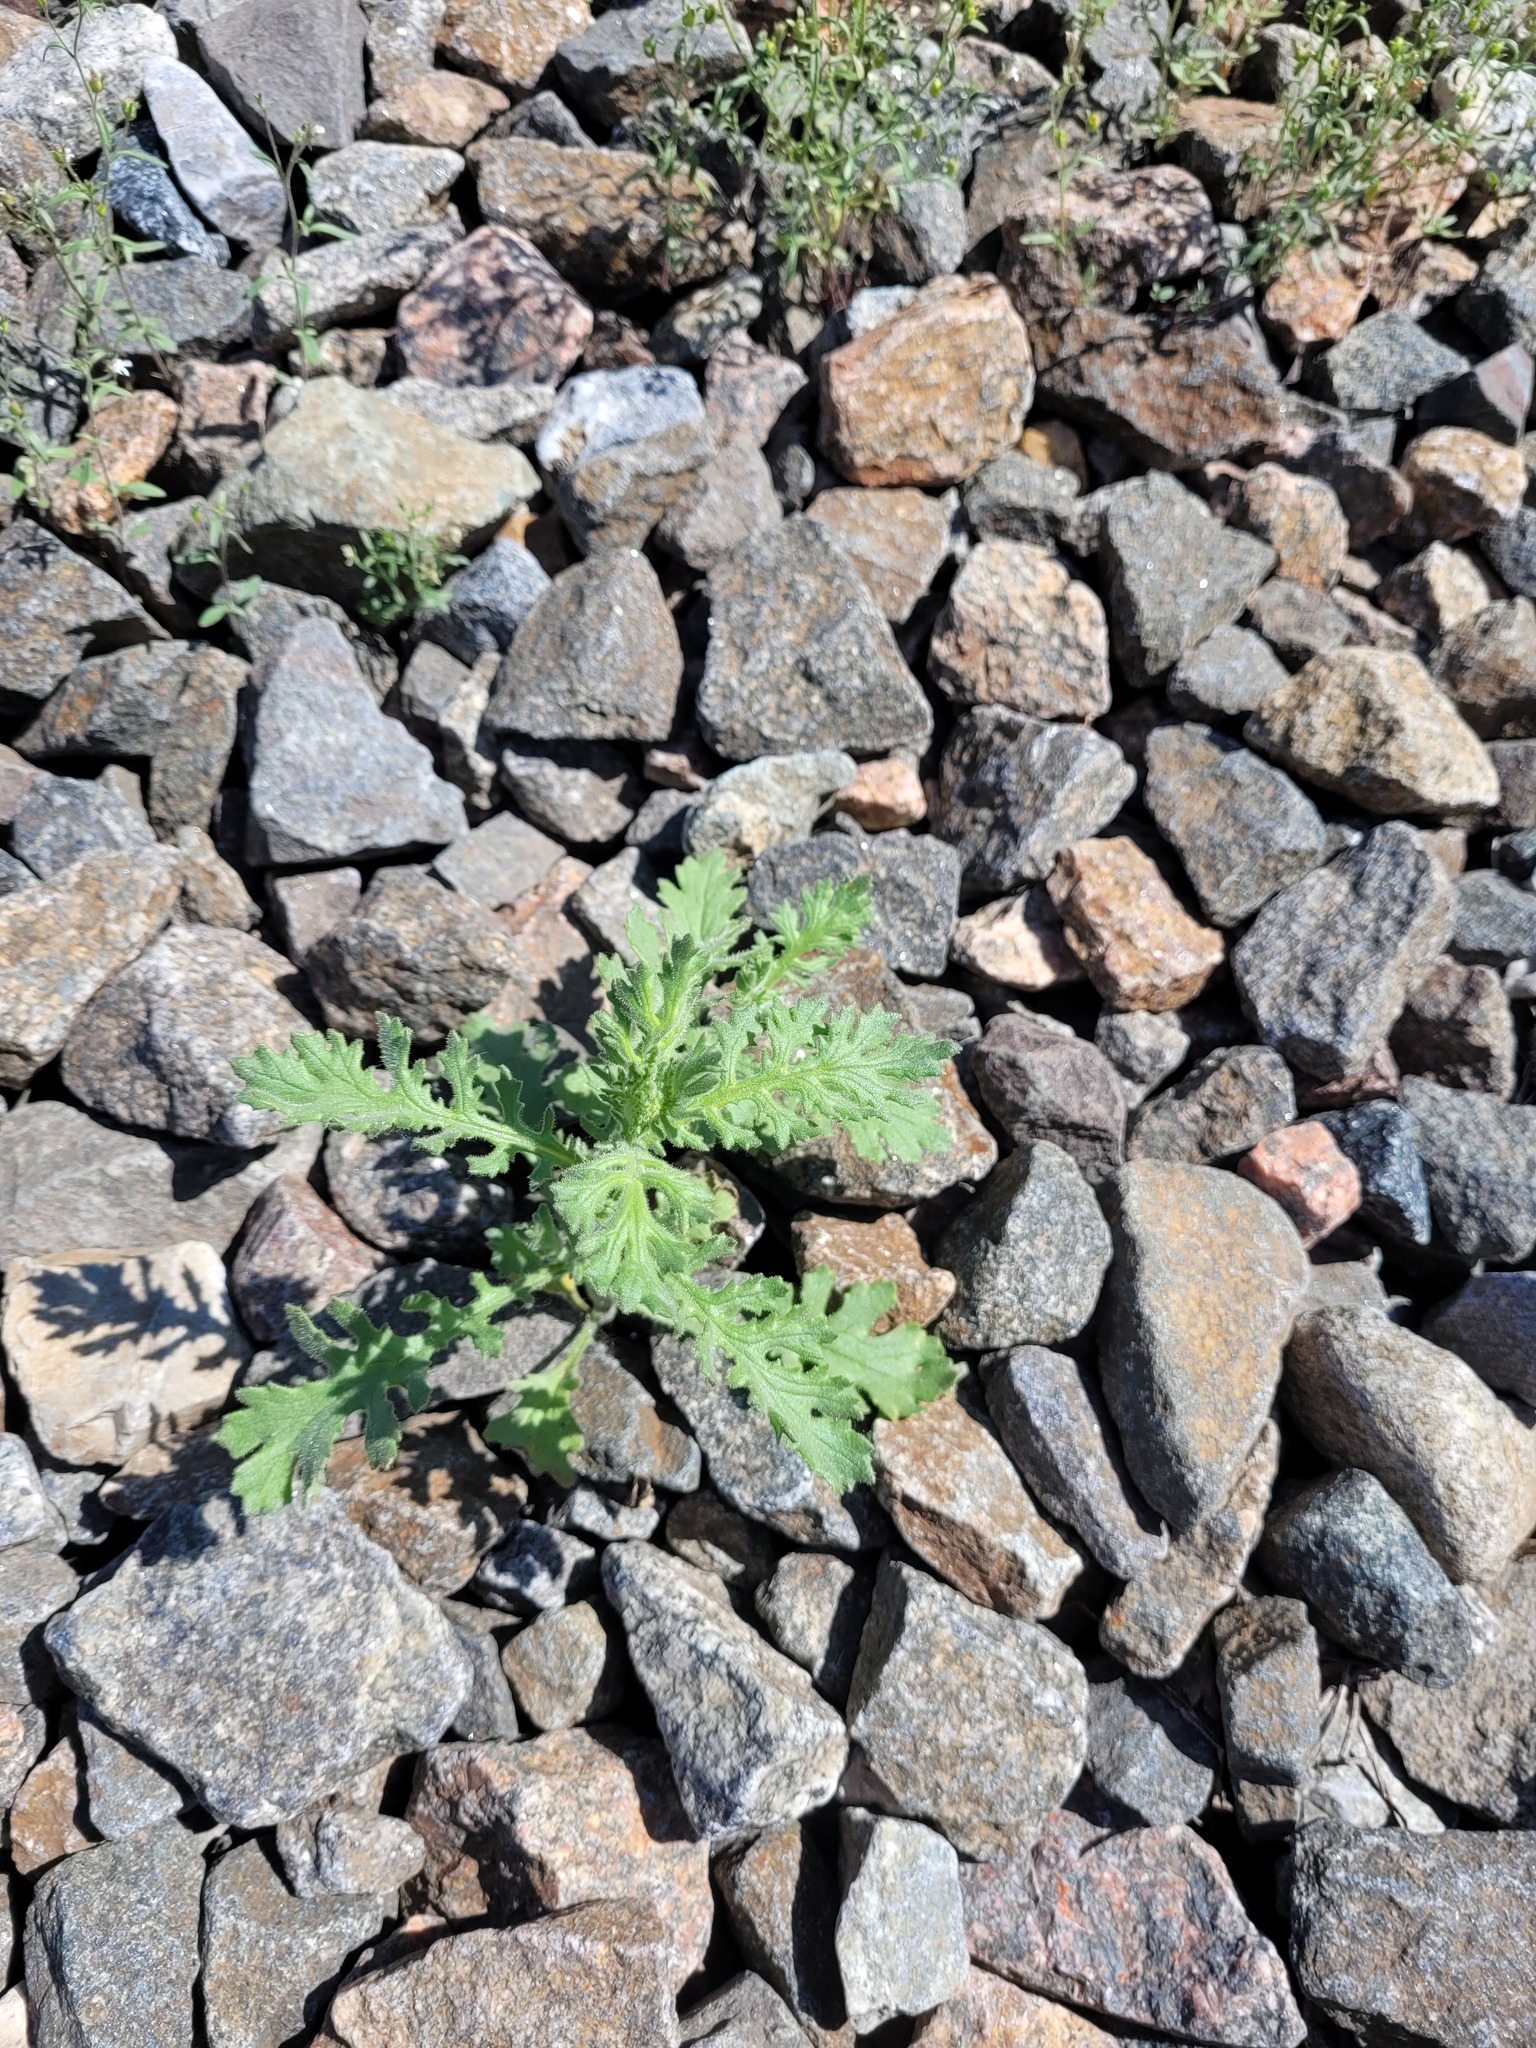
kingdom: Plantae
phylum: Tracheophyta
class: Magnoliopsida
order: Asterales
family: Asteraceae
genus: Senecio
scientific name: Senecio viscosus
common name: Sticky groundsel
